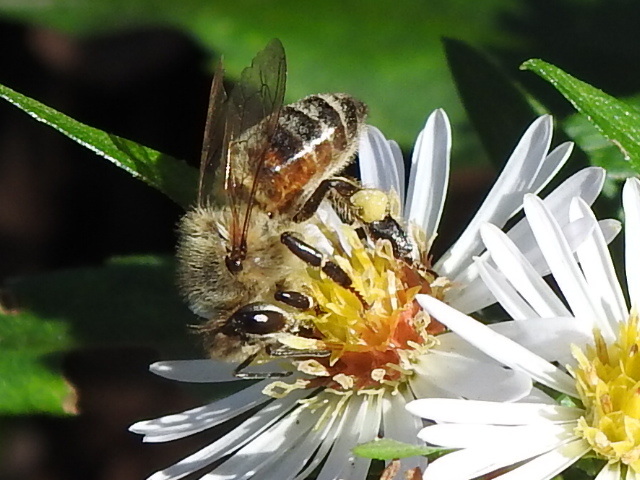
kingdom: Animalia
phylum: Arthropoda
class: Insecta
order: Hymenoptera
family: Apidae
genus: Apis
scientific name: Apis mellifera
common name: Honey bee
